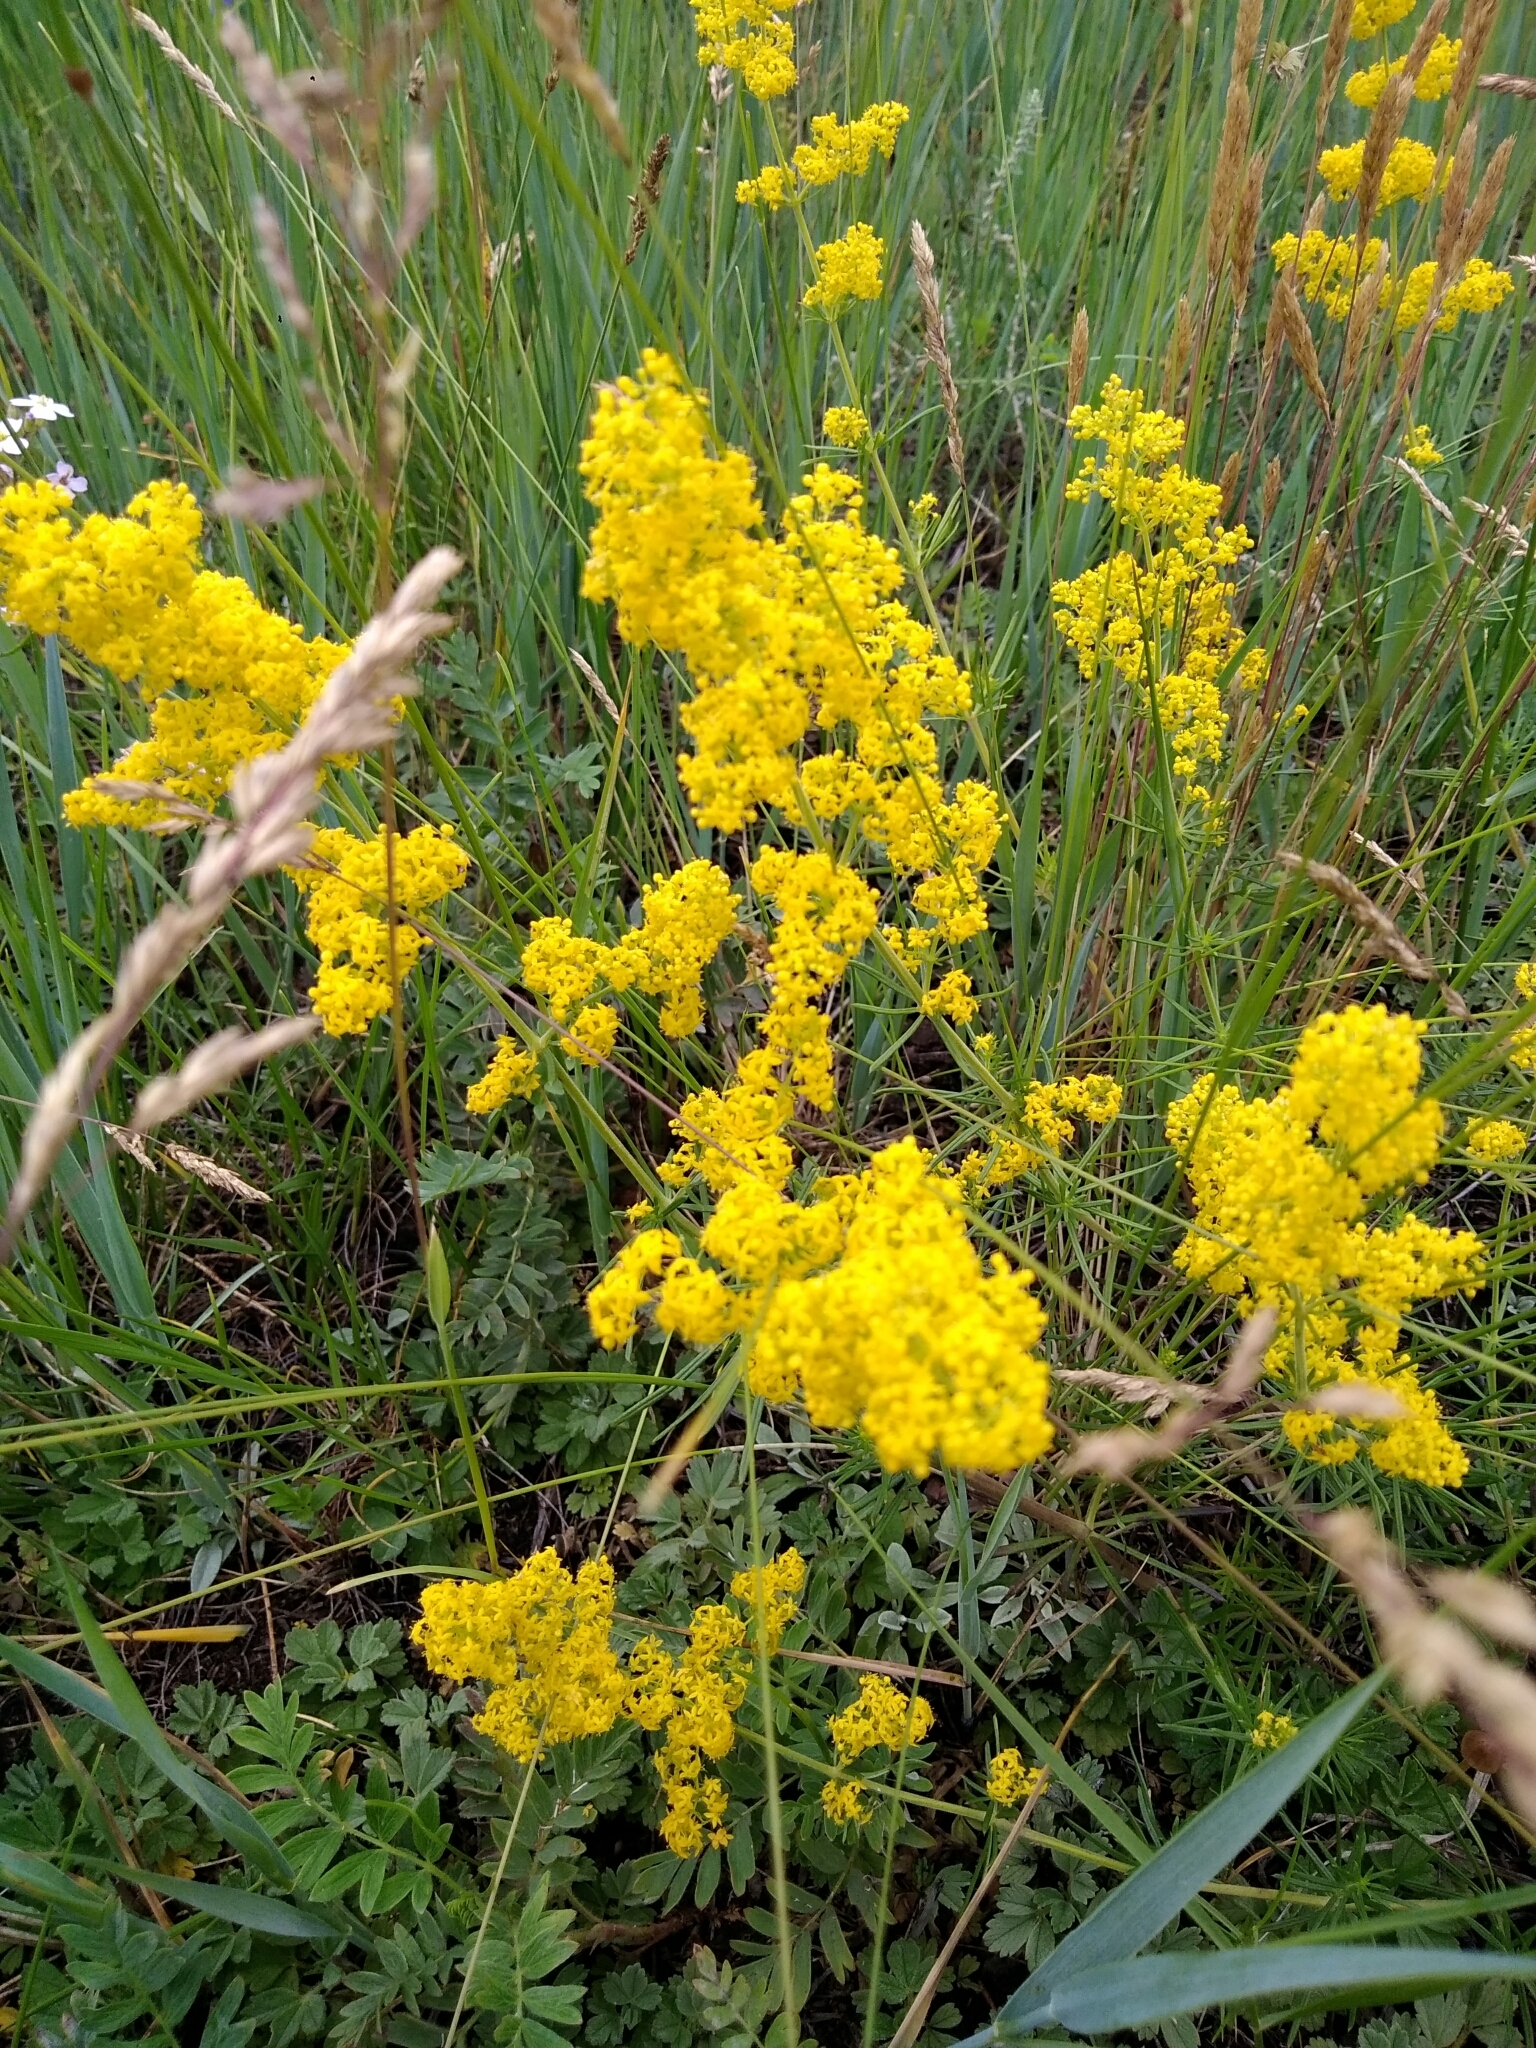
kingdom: Plantae
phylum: Tracheophyta
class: Magnoliopsida
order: Gentianales
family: Rubiaceae
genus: Galium
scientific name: Galium verum
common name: Lady's bedstraw
